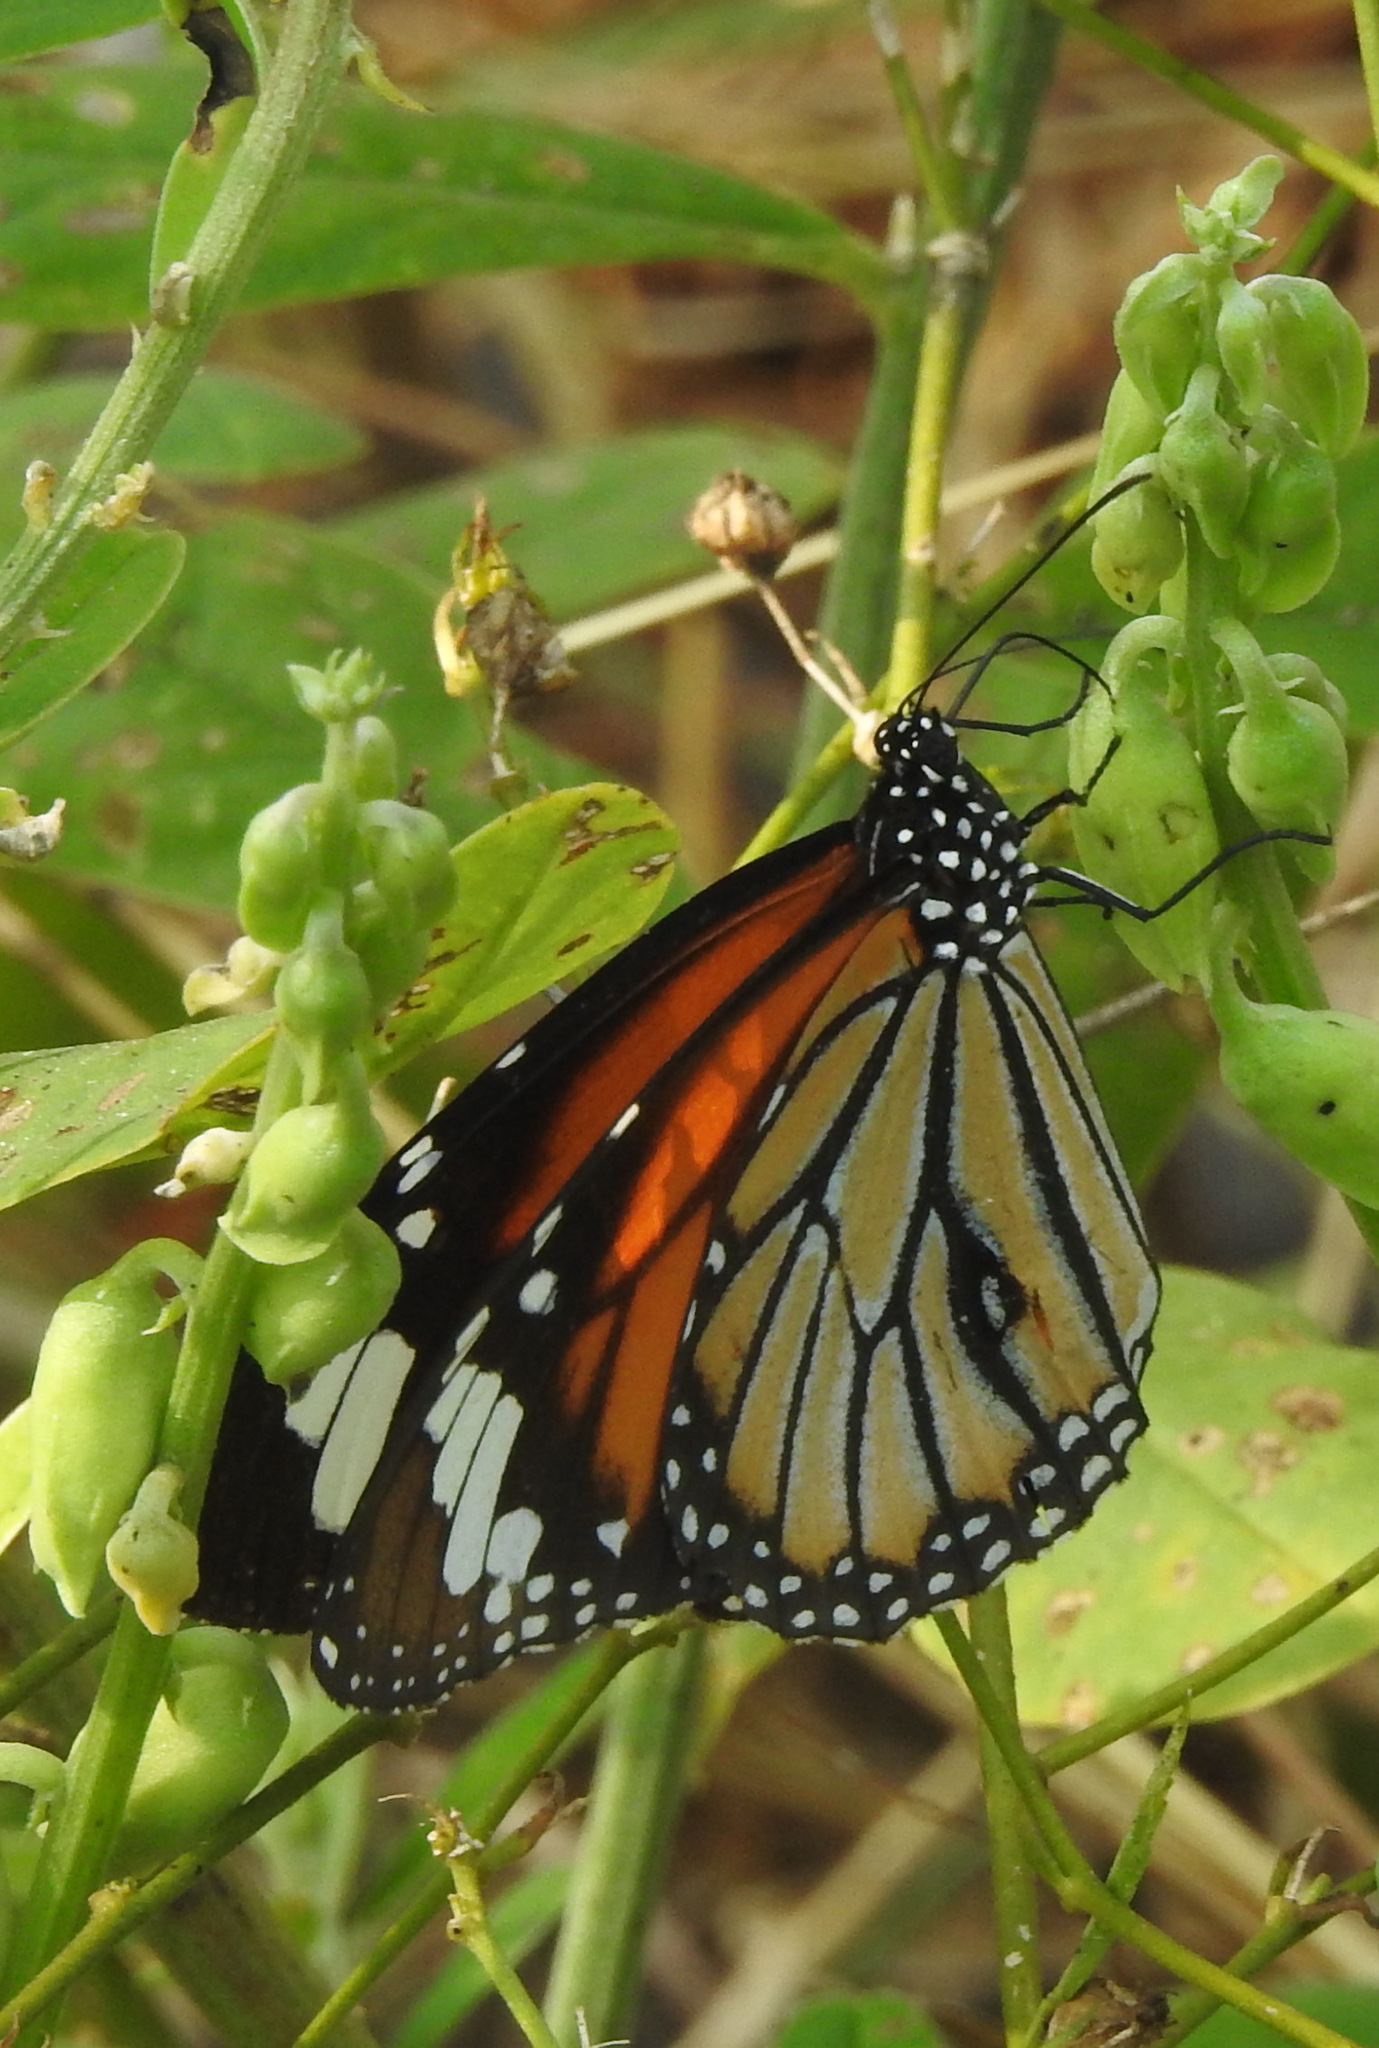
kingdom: Animalia
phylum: Arthropoda
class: Insecta
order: Lepidoptera
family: Nymphalidae
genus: Danaus
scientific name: Danaus genutia
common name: Common tiger butterfly
